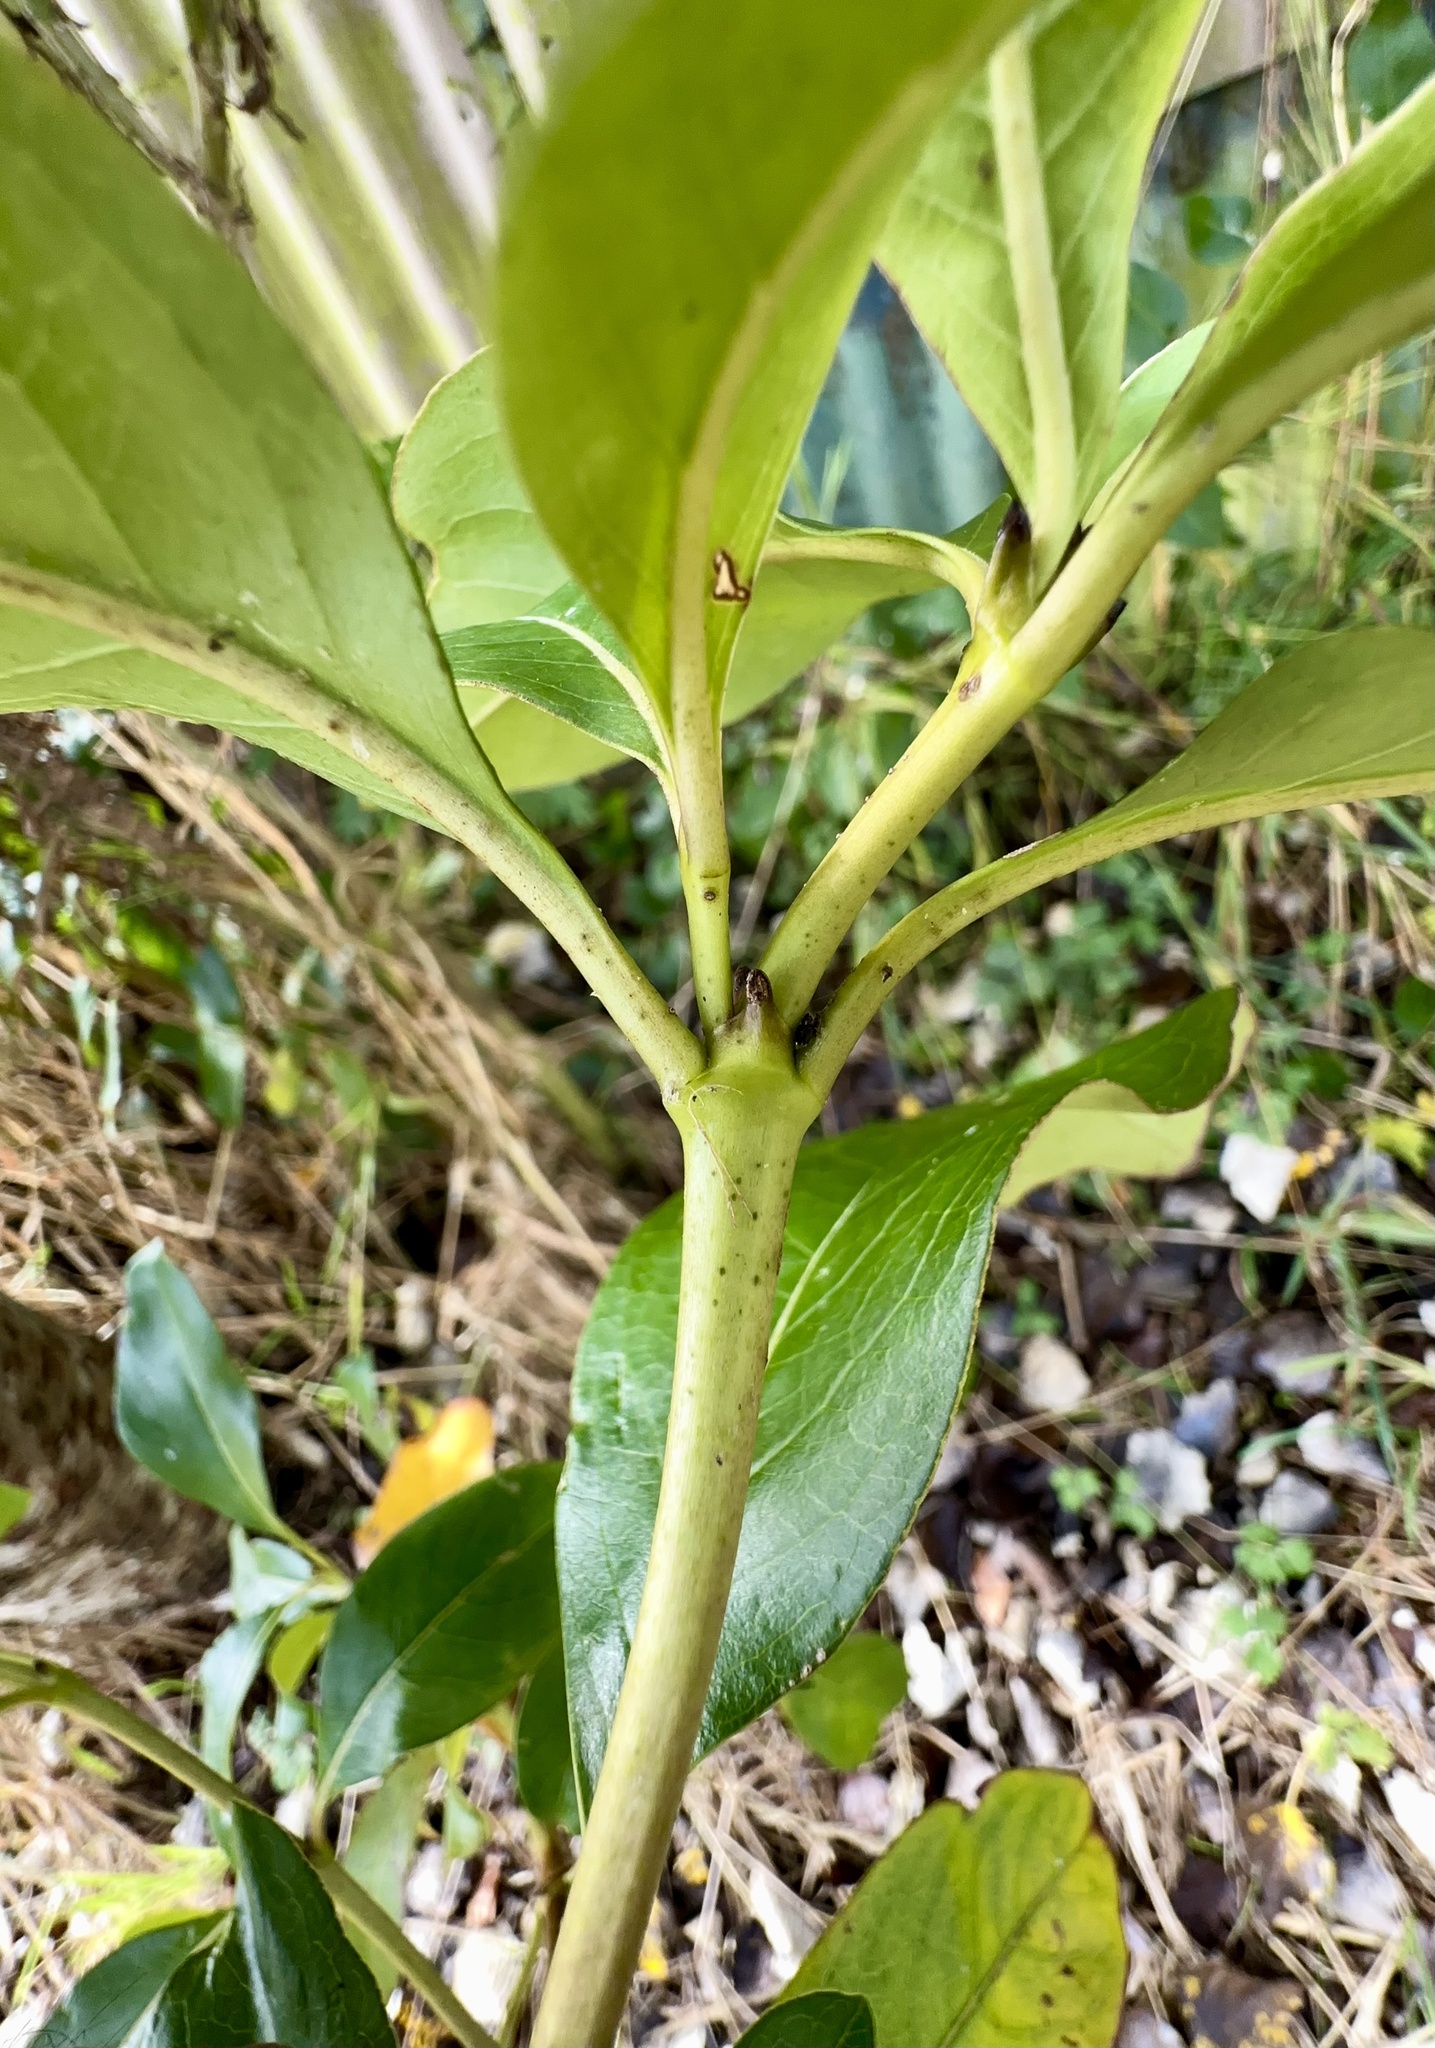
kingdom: Plantae
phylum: Tracheophyta
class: Magnoliopsida
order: Gentianales
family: Rubiaceae
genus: Coprosma
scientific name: Coprosma robusta
